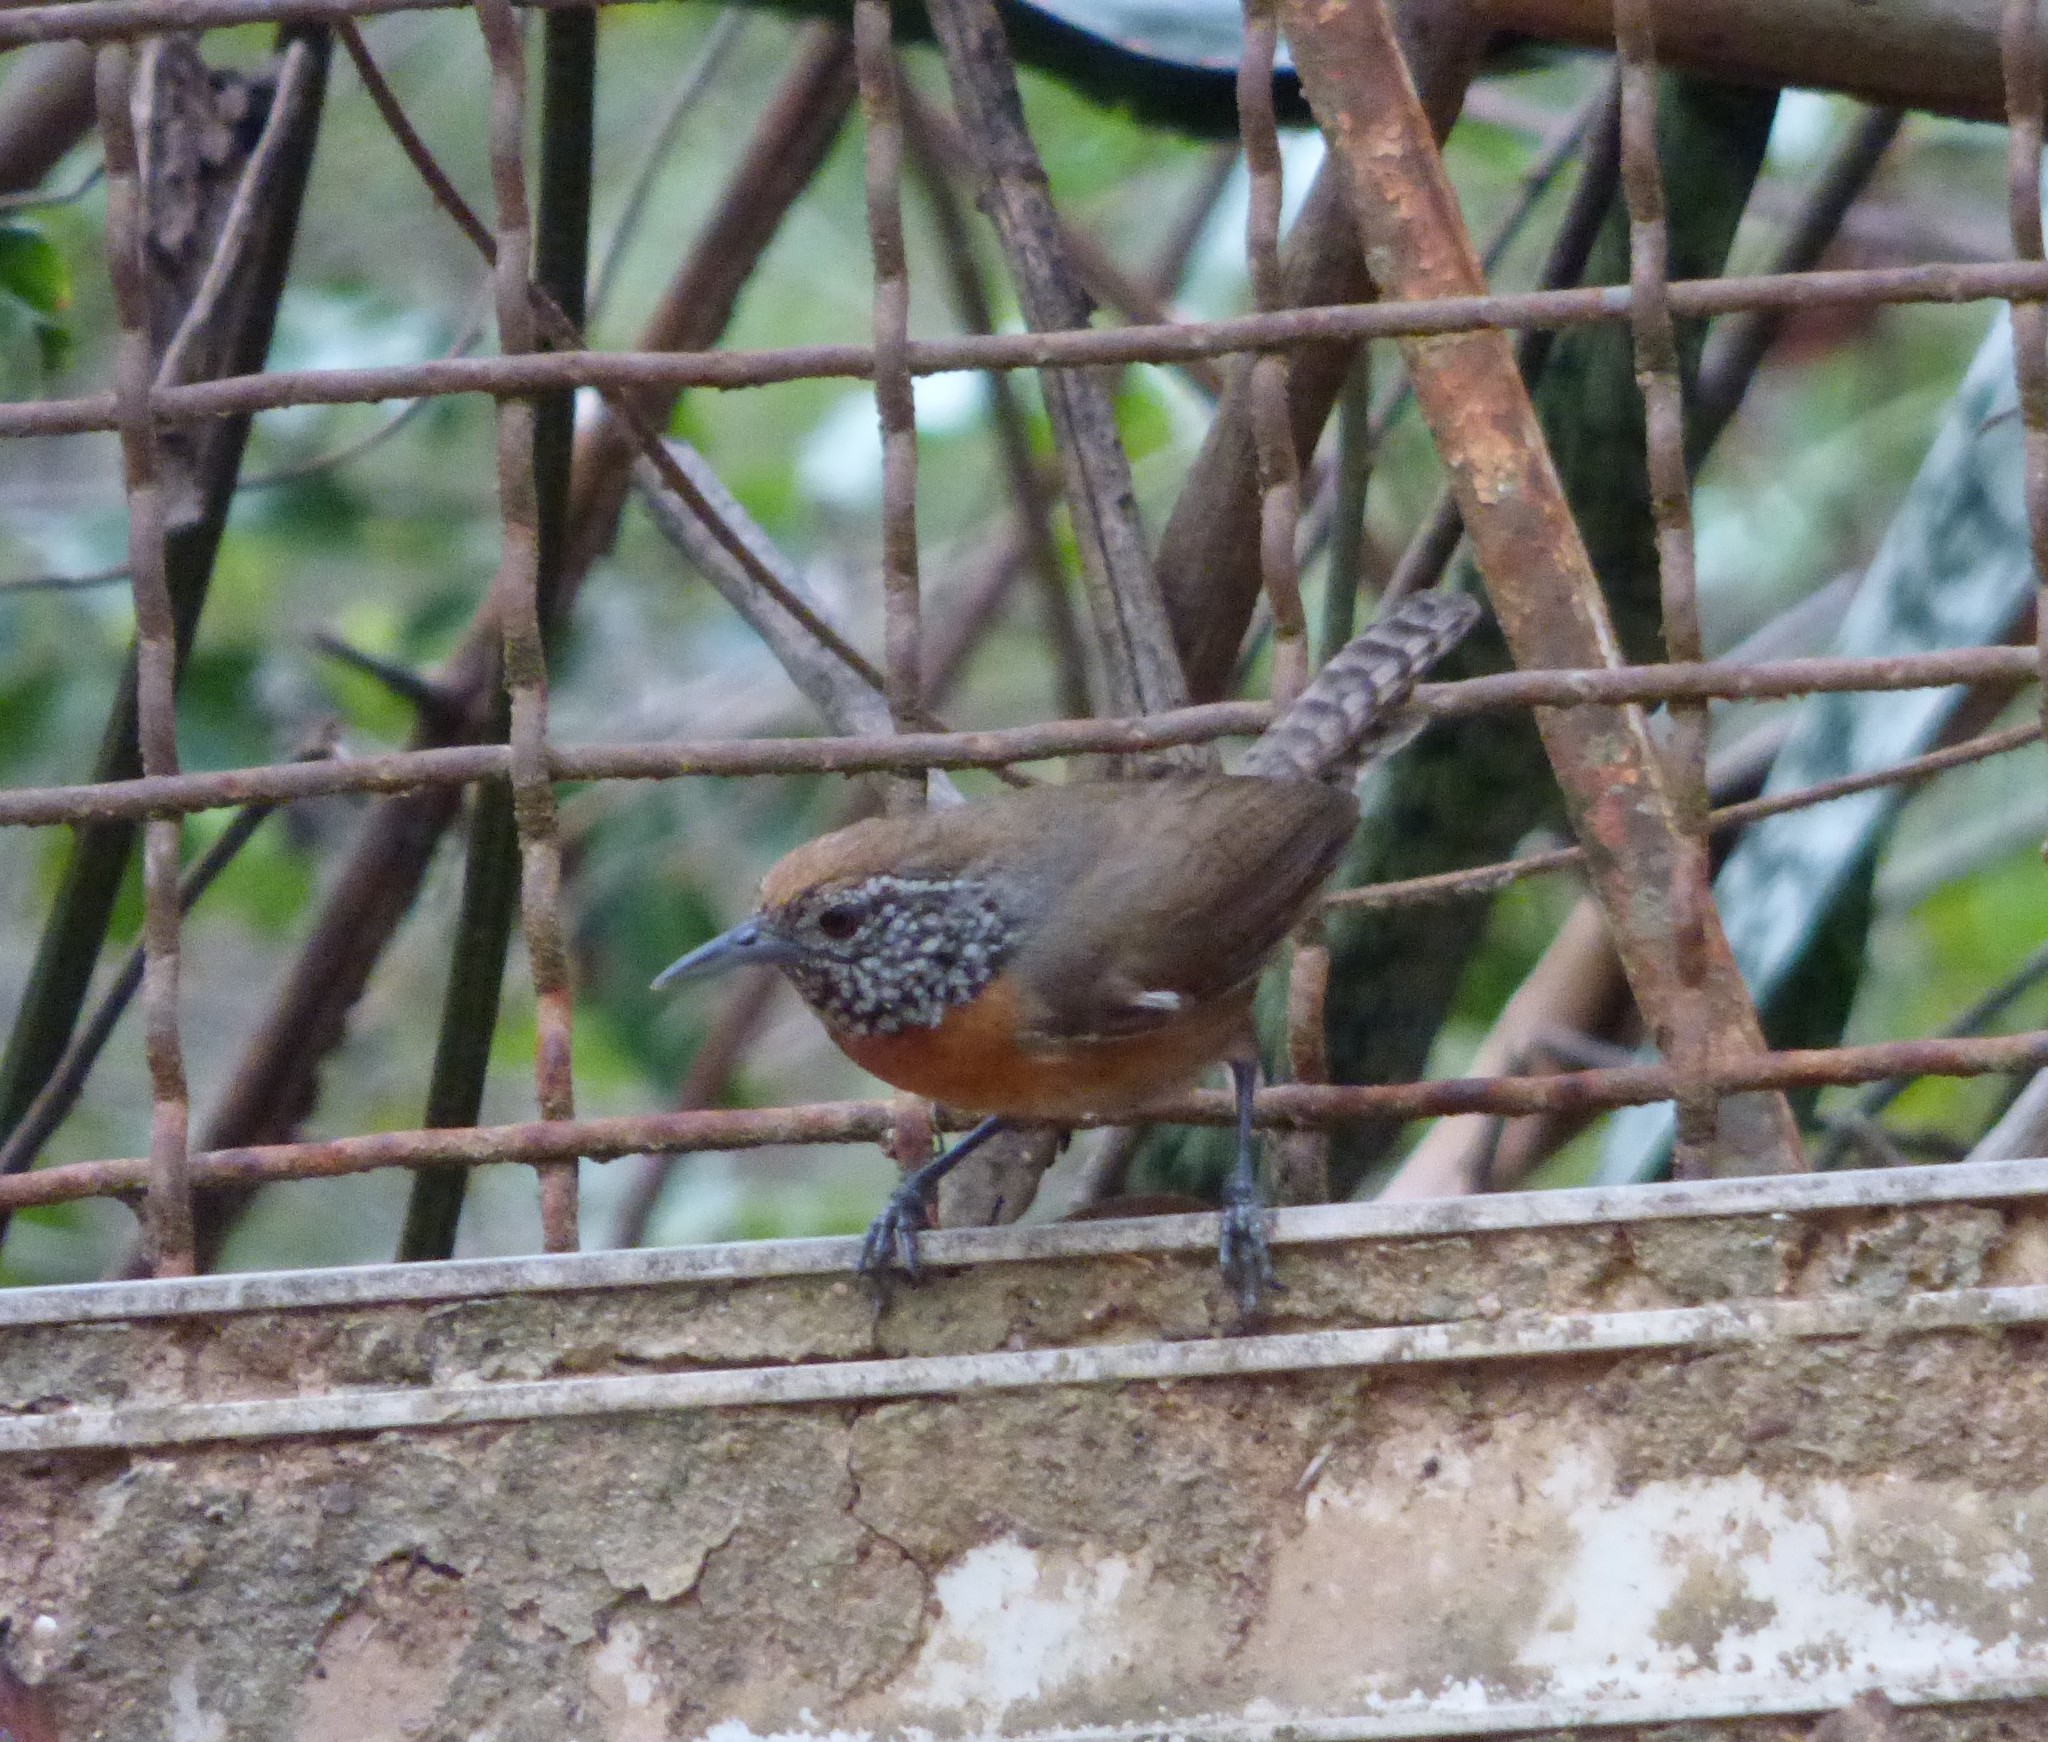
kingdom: Animalia
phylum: Chordata
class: Aves
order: Passeriformes
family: Troglodytidae
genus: Pheugopedius
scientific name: Pheugopedius rutilus
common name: Rufous-breasted wren
